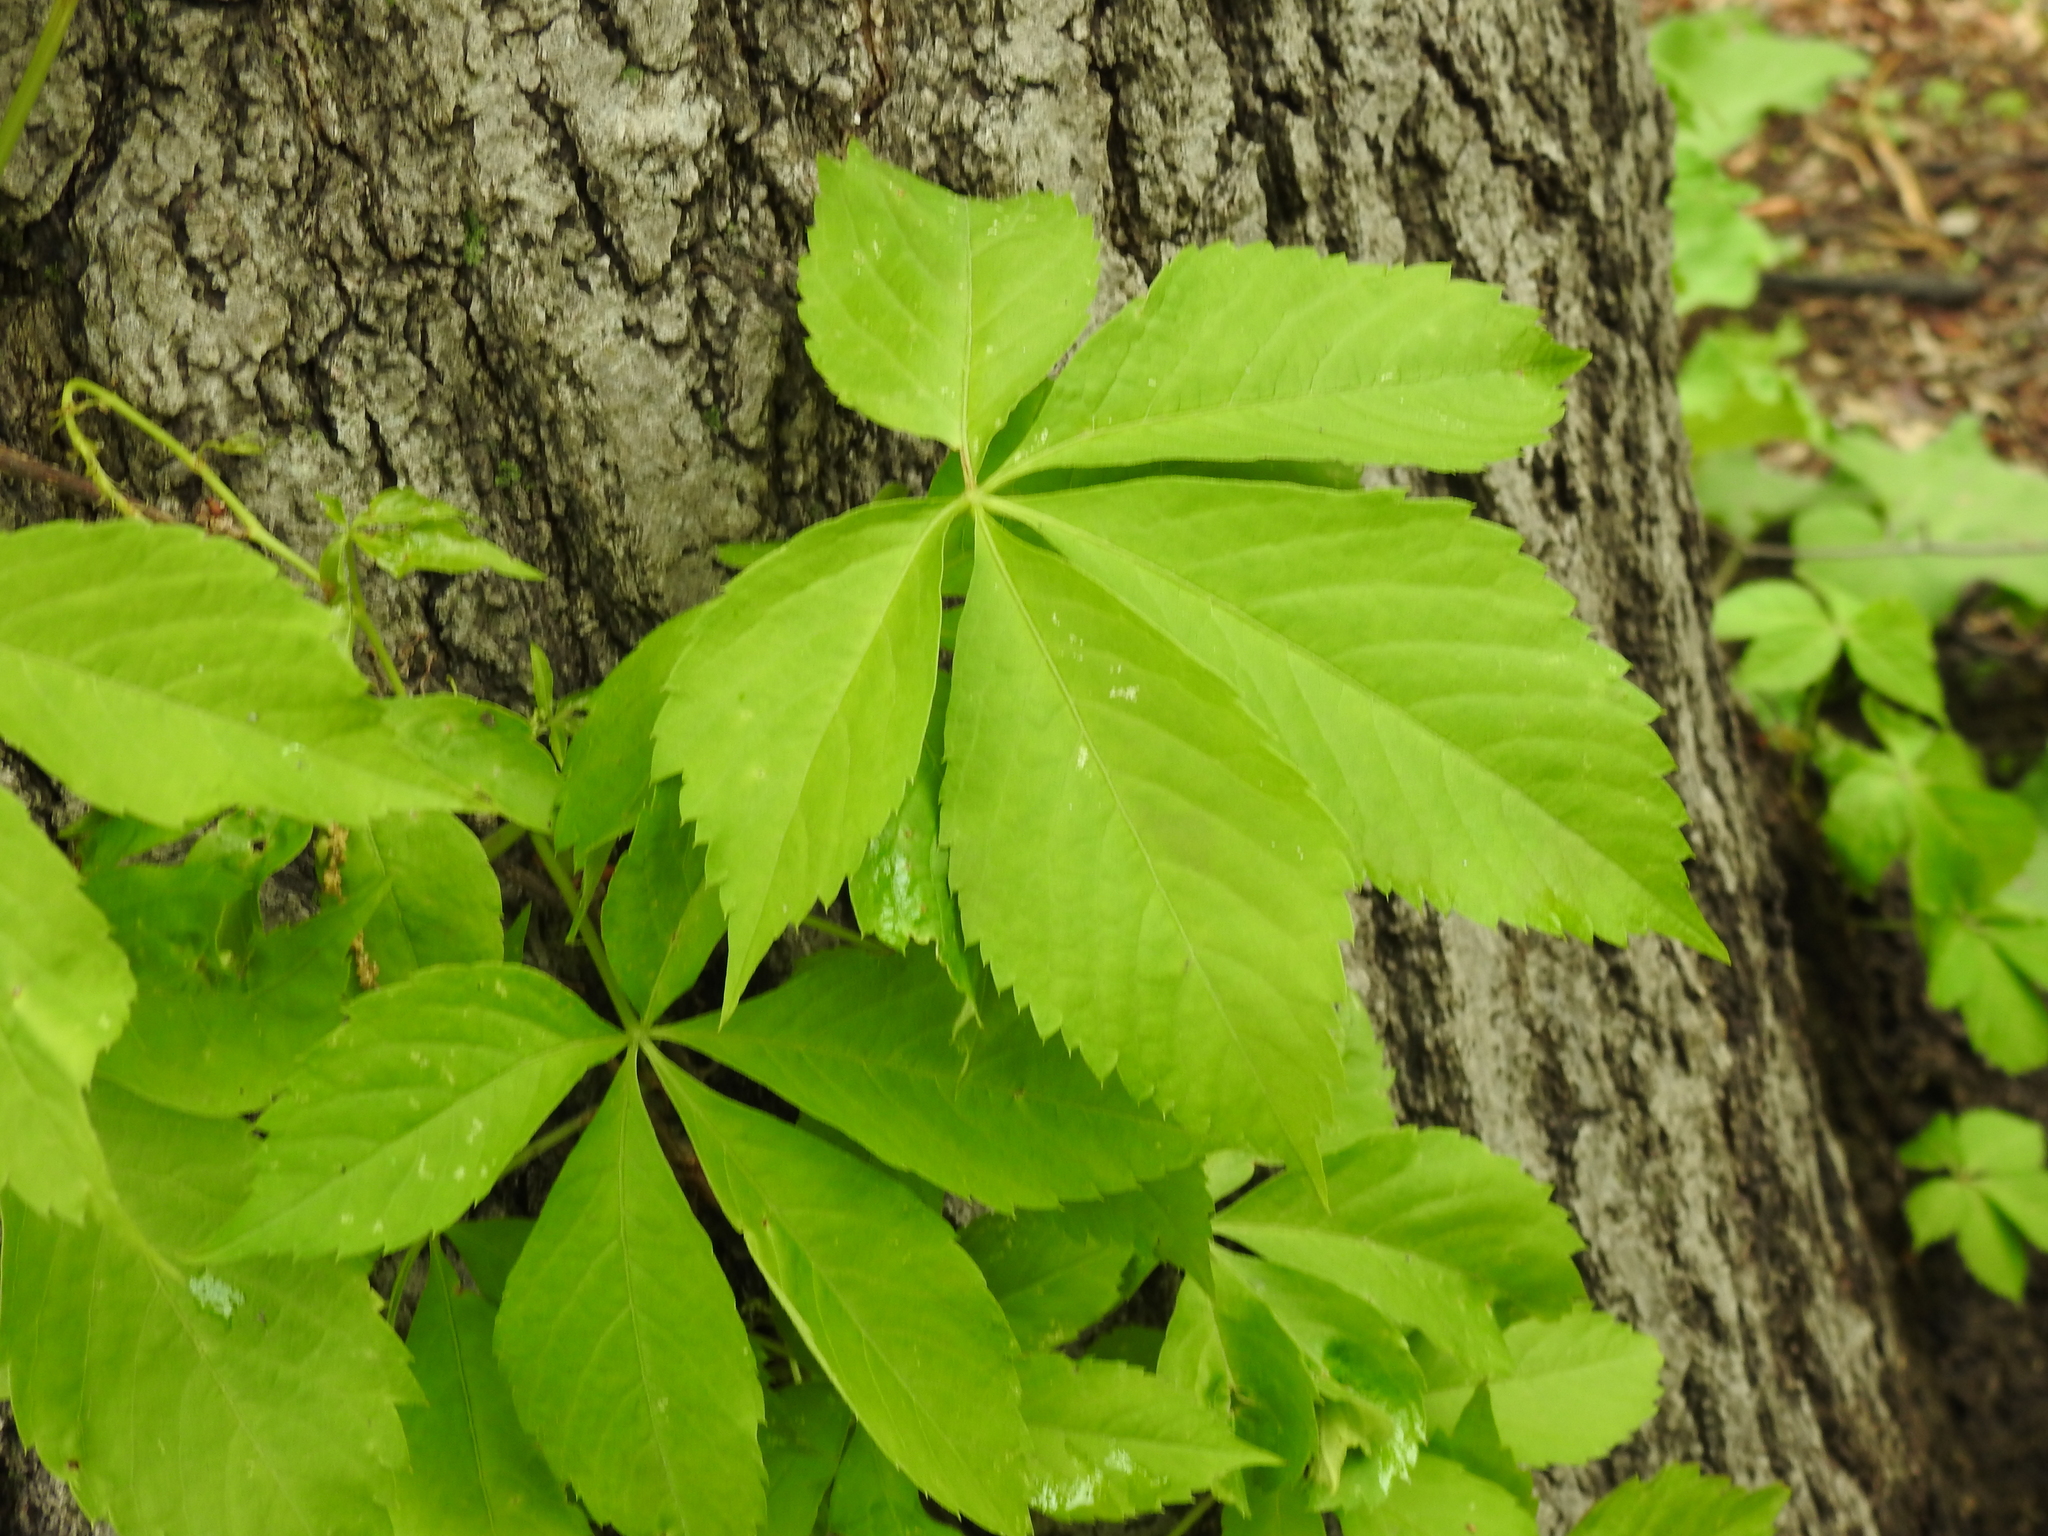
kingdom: Plantae
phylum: Tracheophyta
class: Magnoliopsida
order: Vitales
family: Vitaceae
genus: Parthenocissus
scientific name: Parthenocissus quinquefolia
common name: Virginia-creeper
